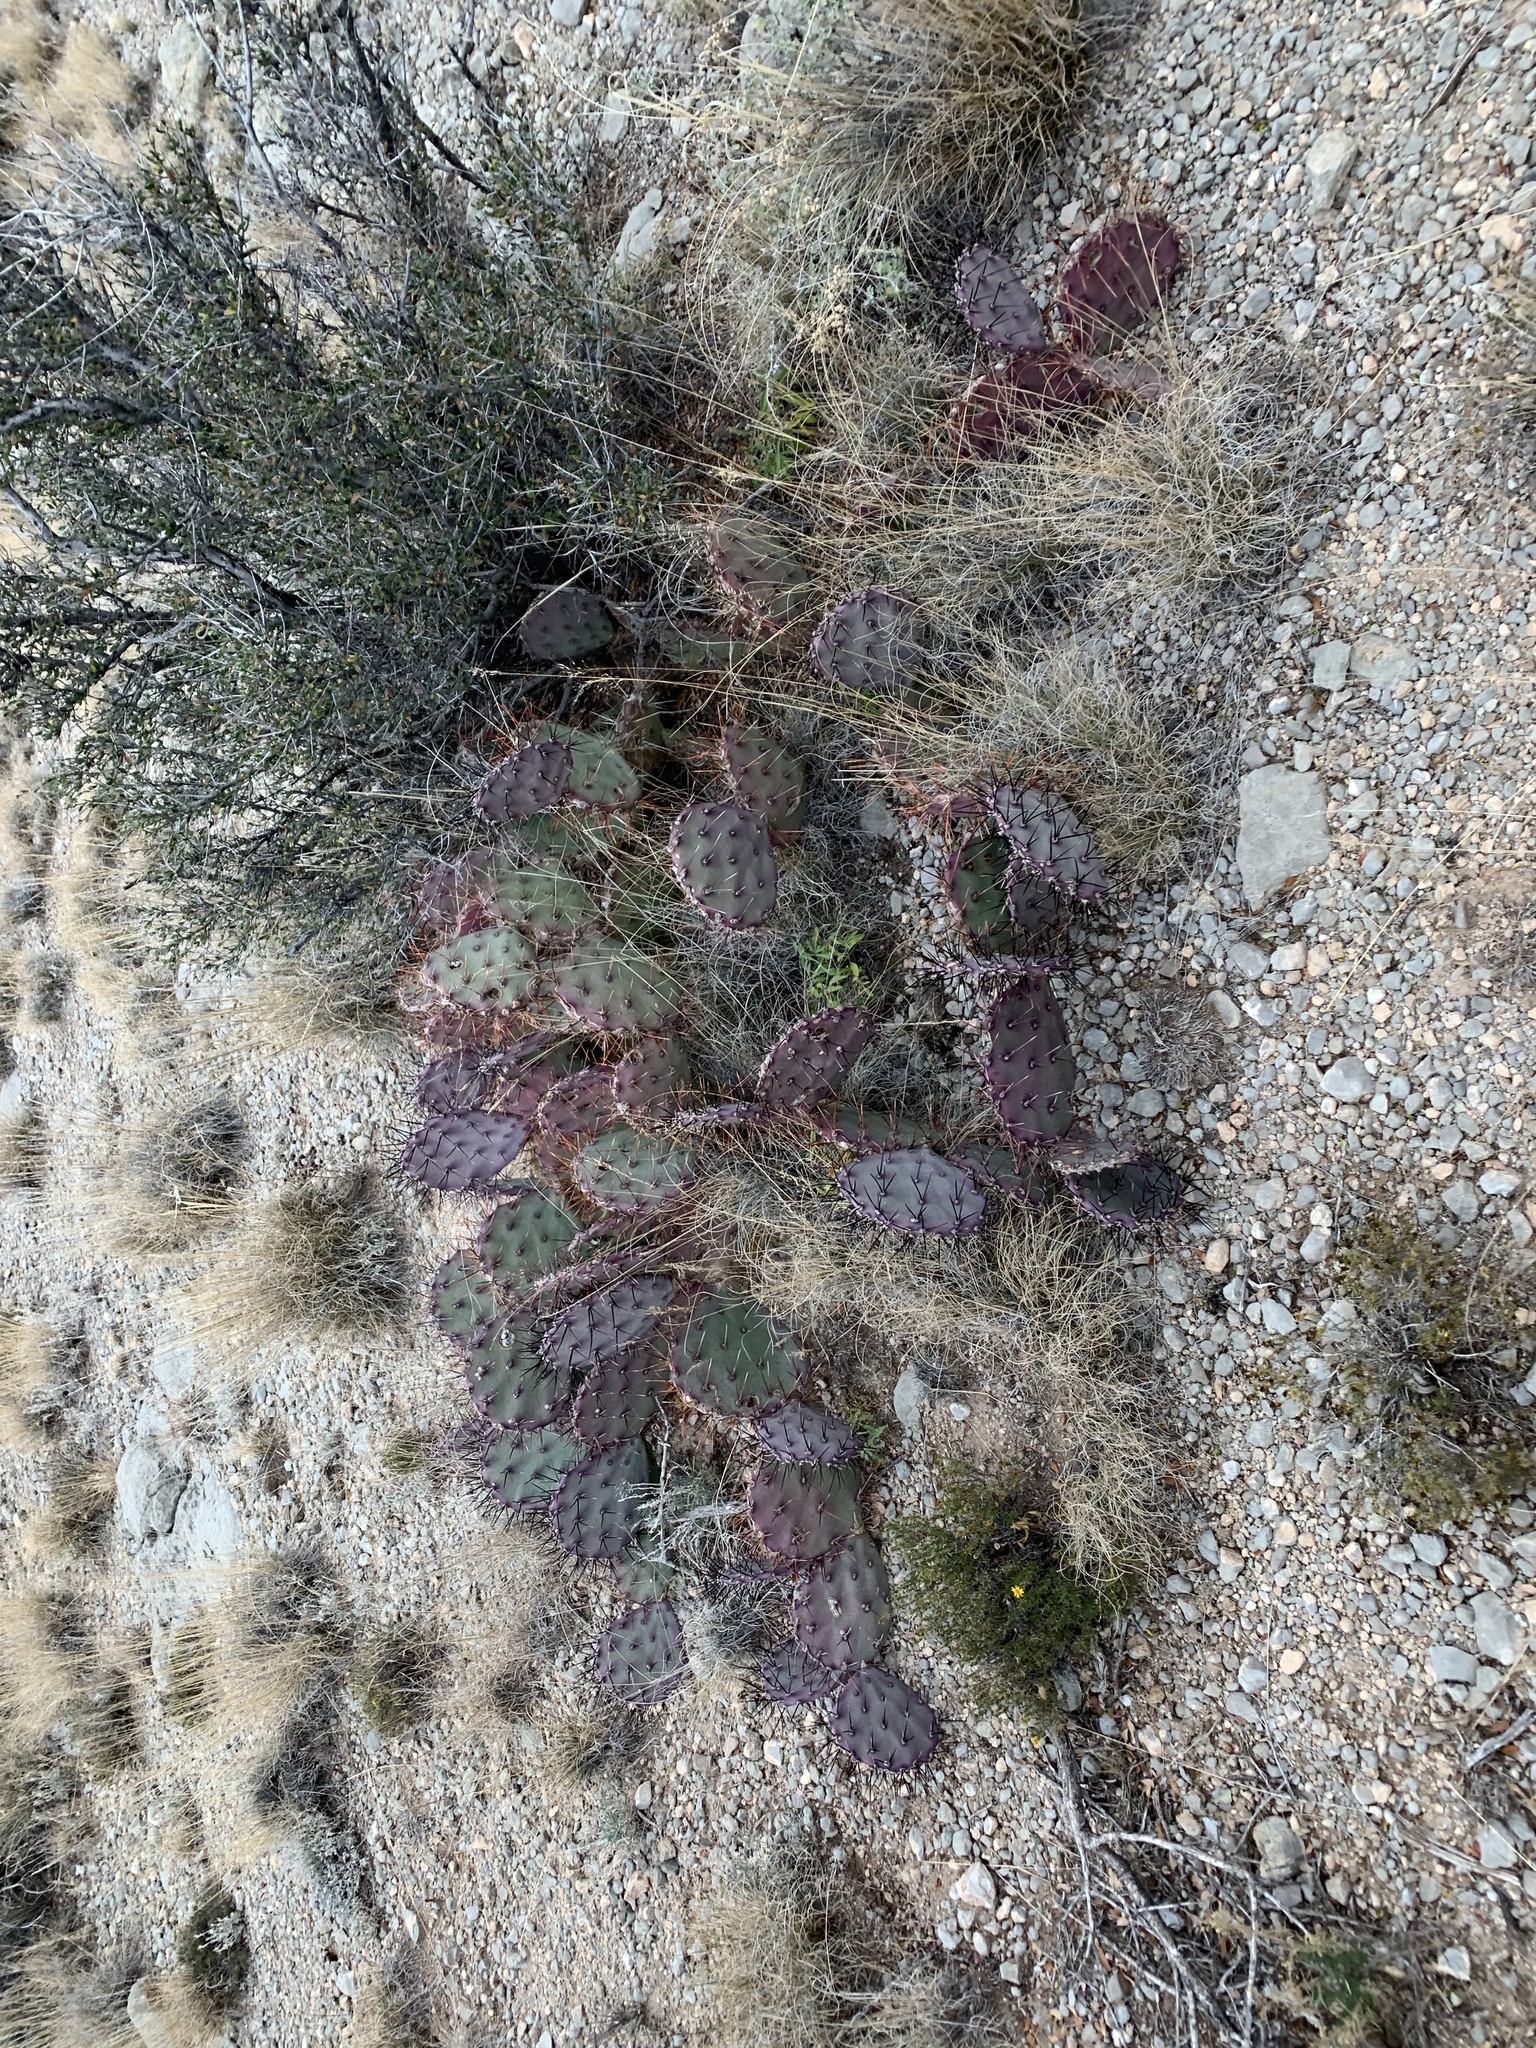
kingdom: Plantae
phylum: Tracheophyta
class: Magnoliopsida
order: Caryophyllales
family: Cactaceae
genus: Opuntia
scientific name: Opuntia macrocentra
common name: Purple prickly-pear
